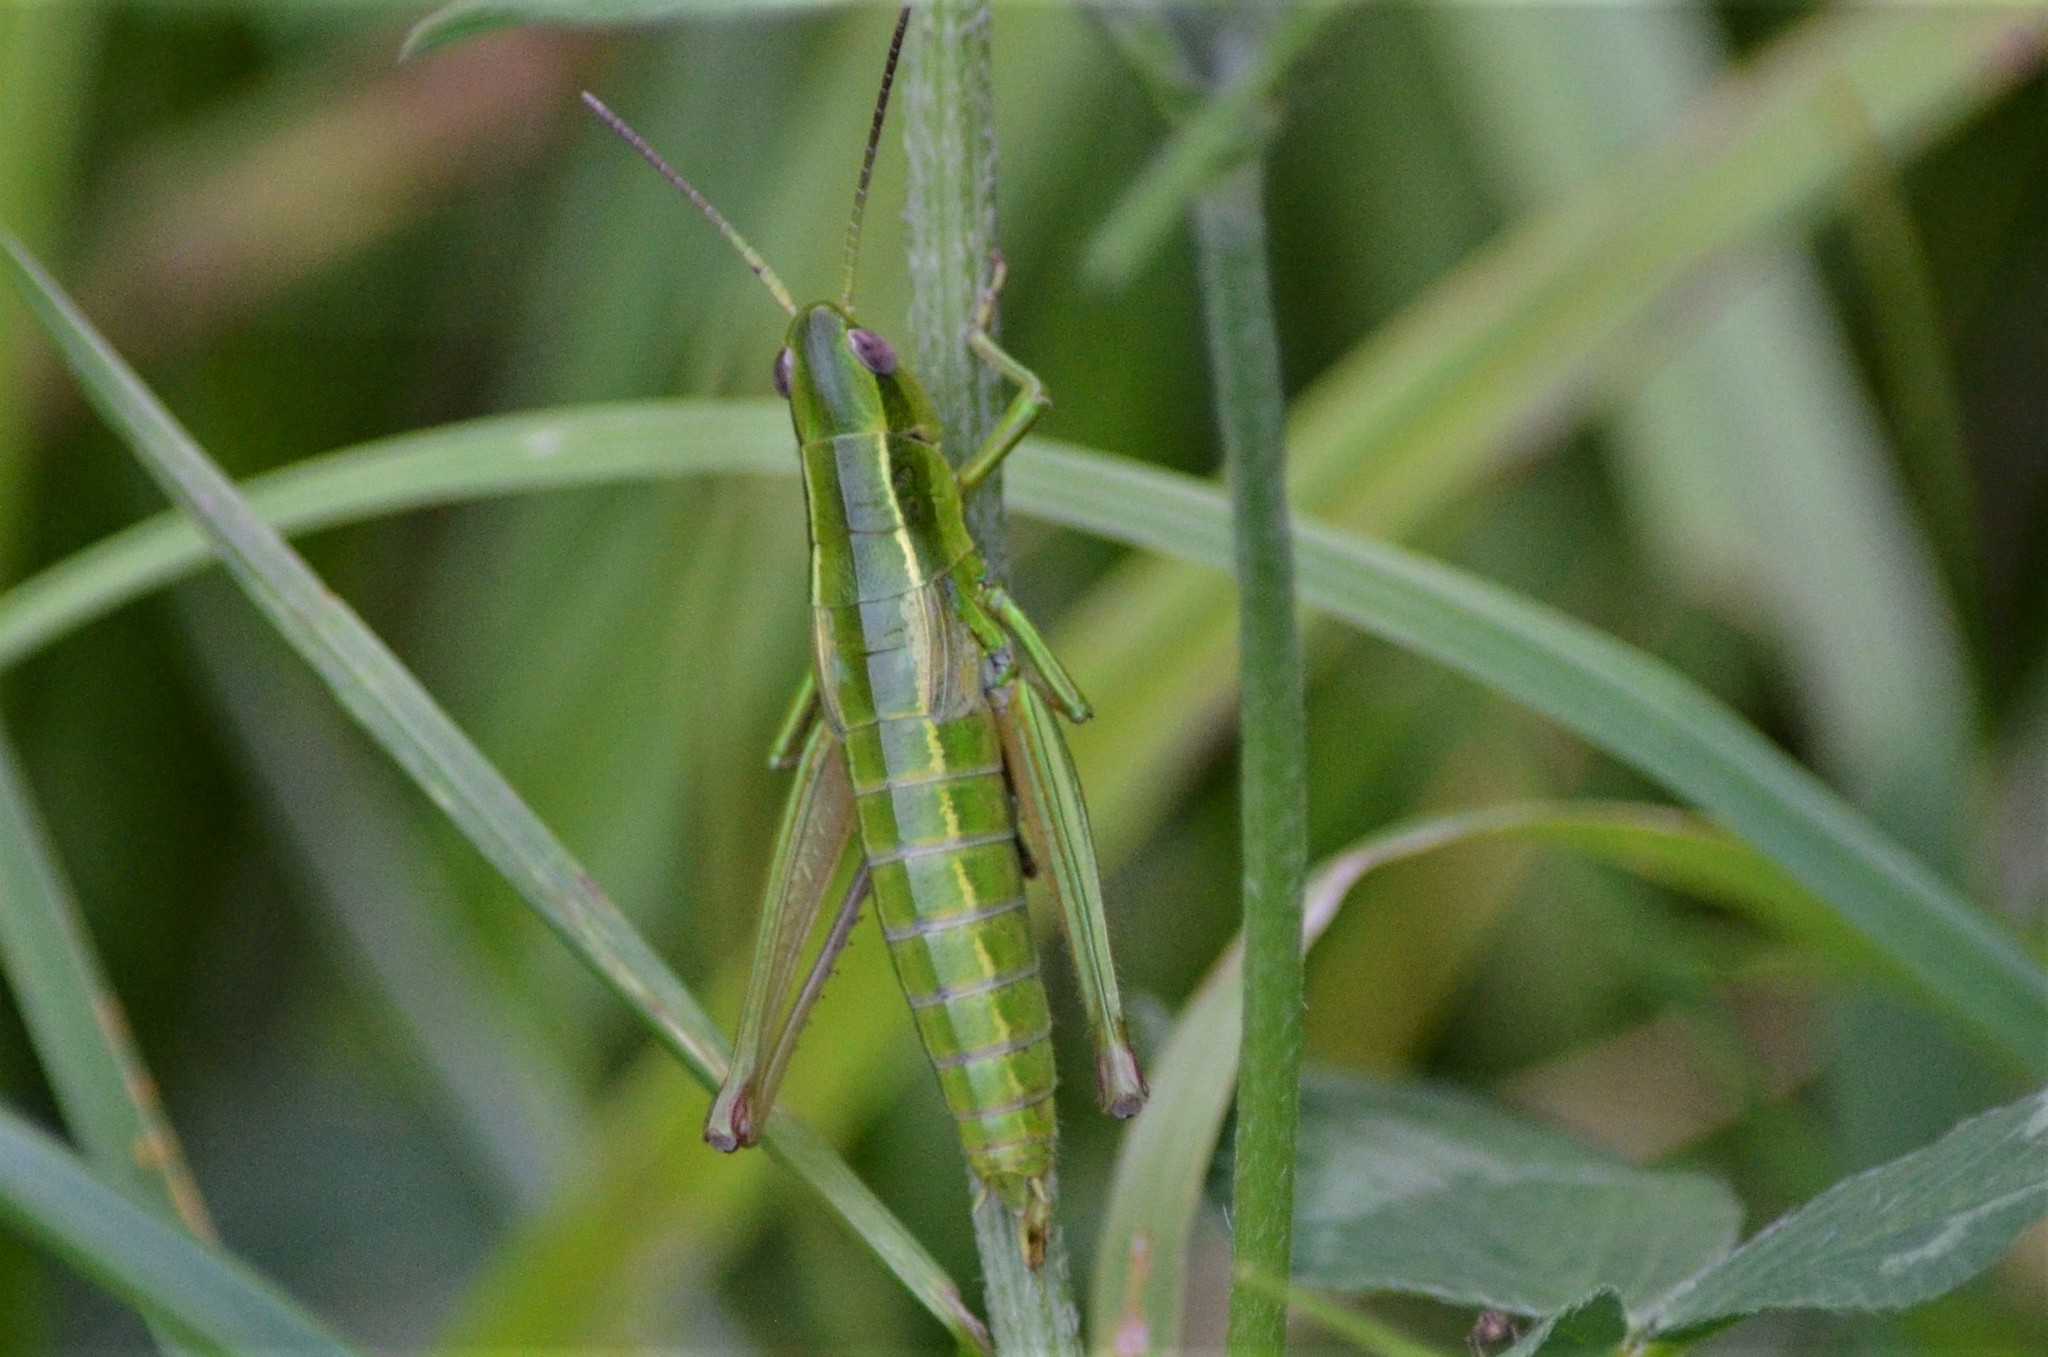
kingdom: Animalia
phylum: Arthropoda
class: Insecta
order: Orthoptera
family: Acrididae
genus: Euthystira
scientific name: Euthystira brachyptera
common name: Small gold grasshopper
